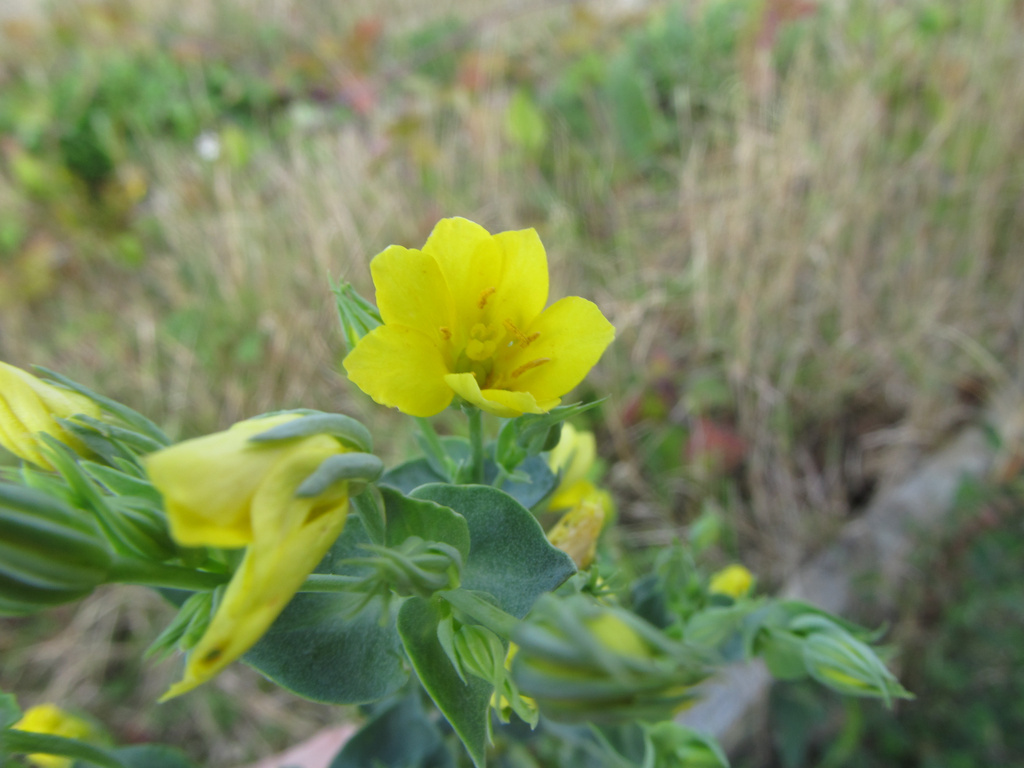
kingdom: Plantae
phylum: Tracheophyta
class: Magnoliopsida
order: Gentianales
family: Gentianaceae
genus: Blackstonia
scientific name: Blackstonia perfoliata
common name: Yellow-wort
